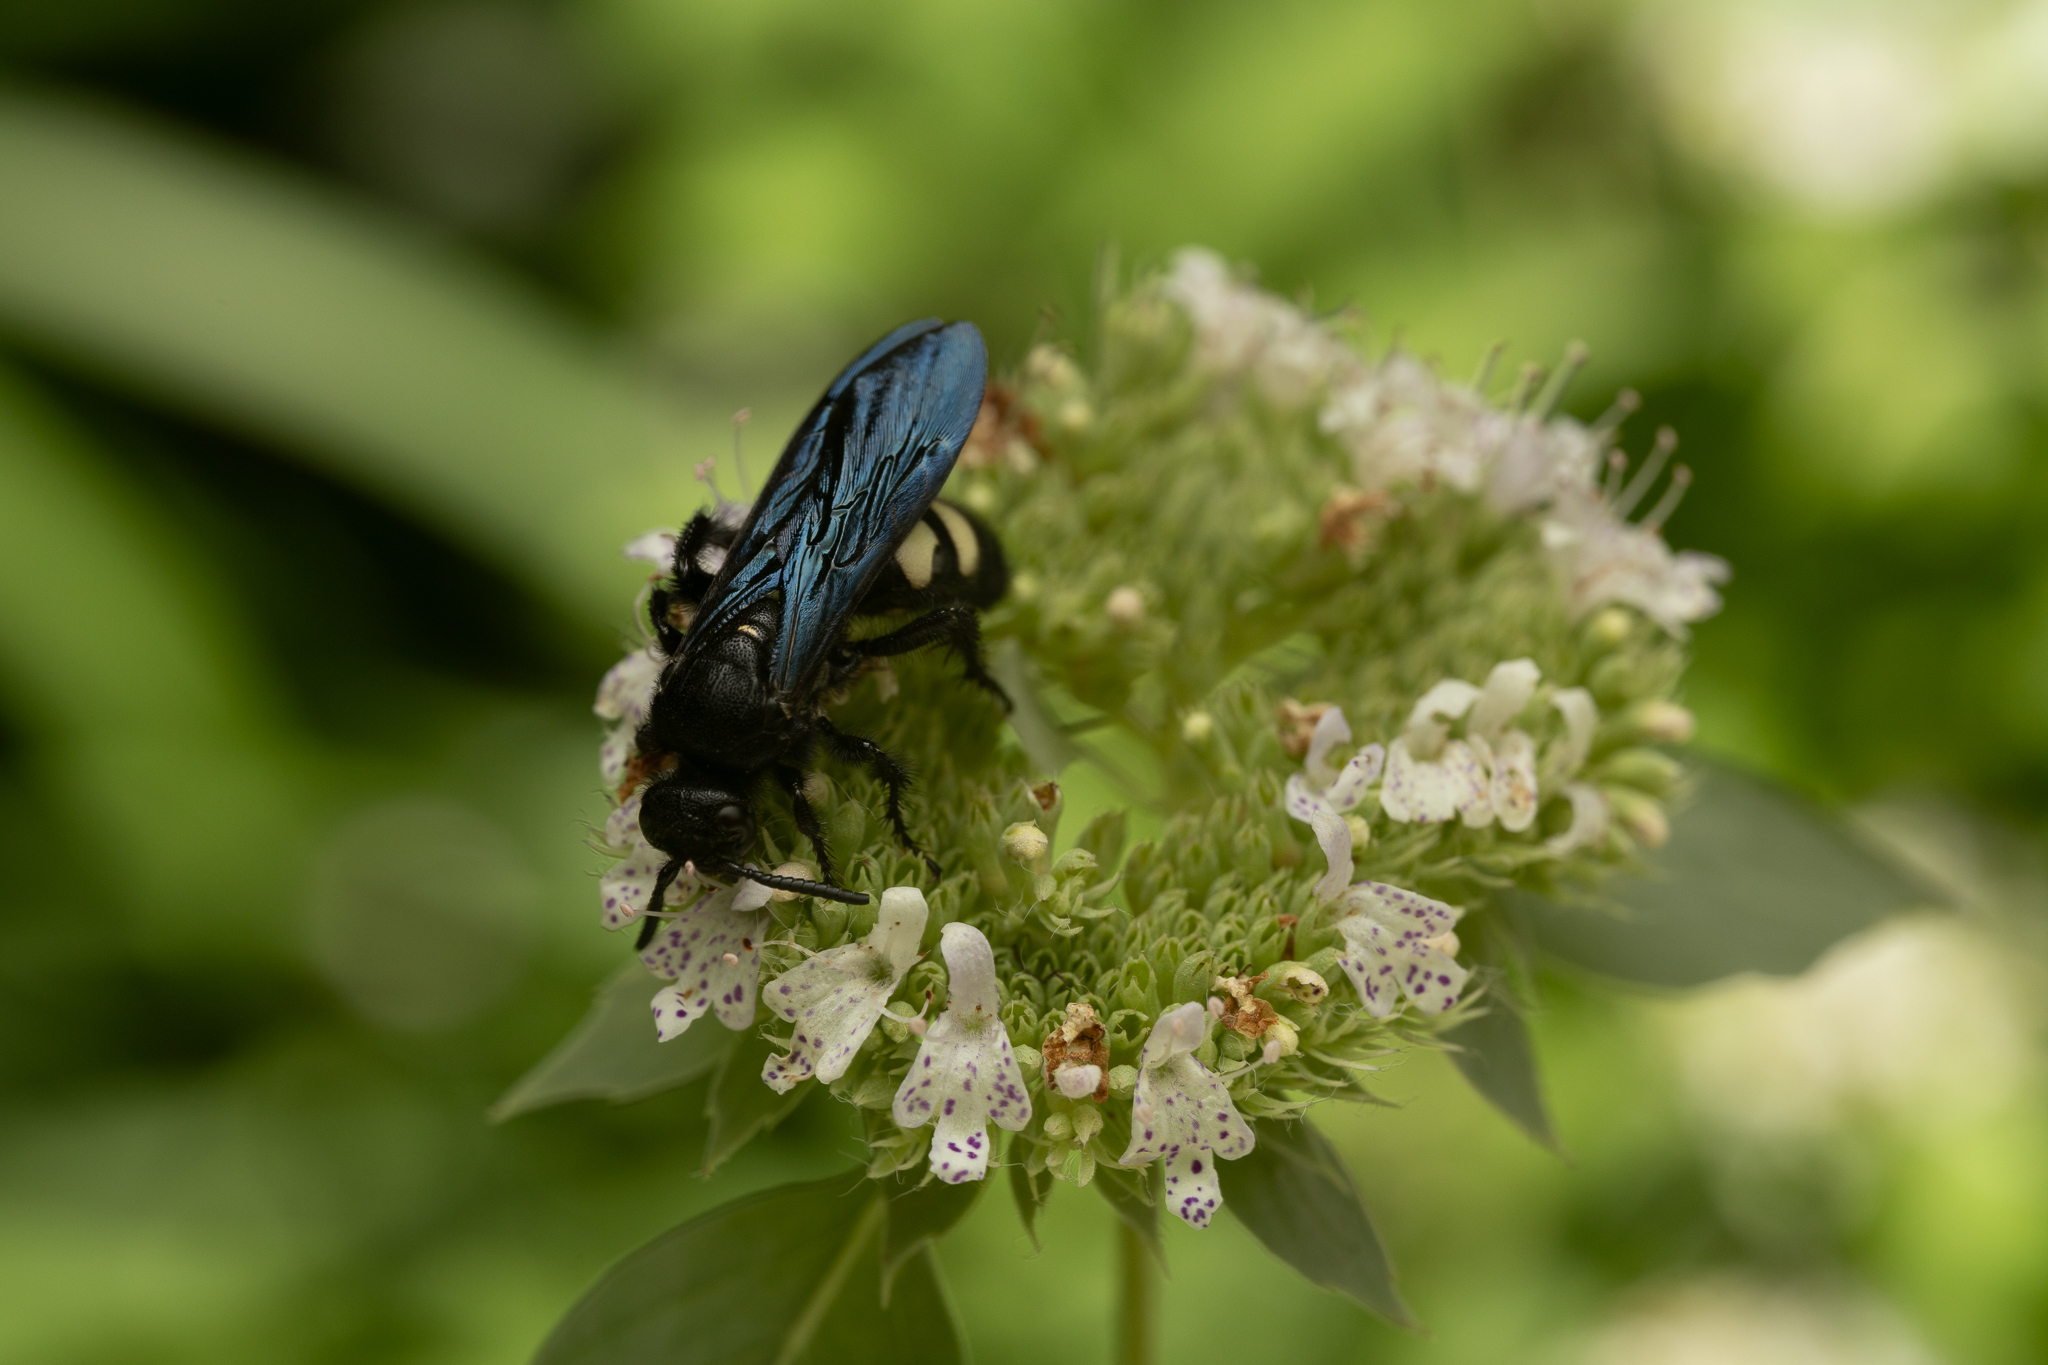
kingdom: Animalia
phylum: Arthropoda
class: Insecta
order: Hymenoptera
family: Scoliidae
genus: Scolia
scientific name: Scolia bicincta
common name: Double-banded scoliid wasp
